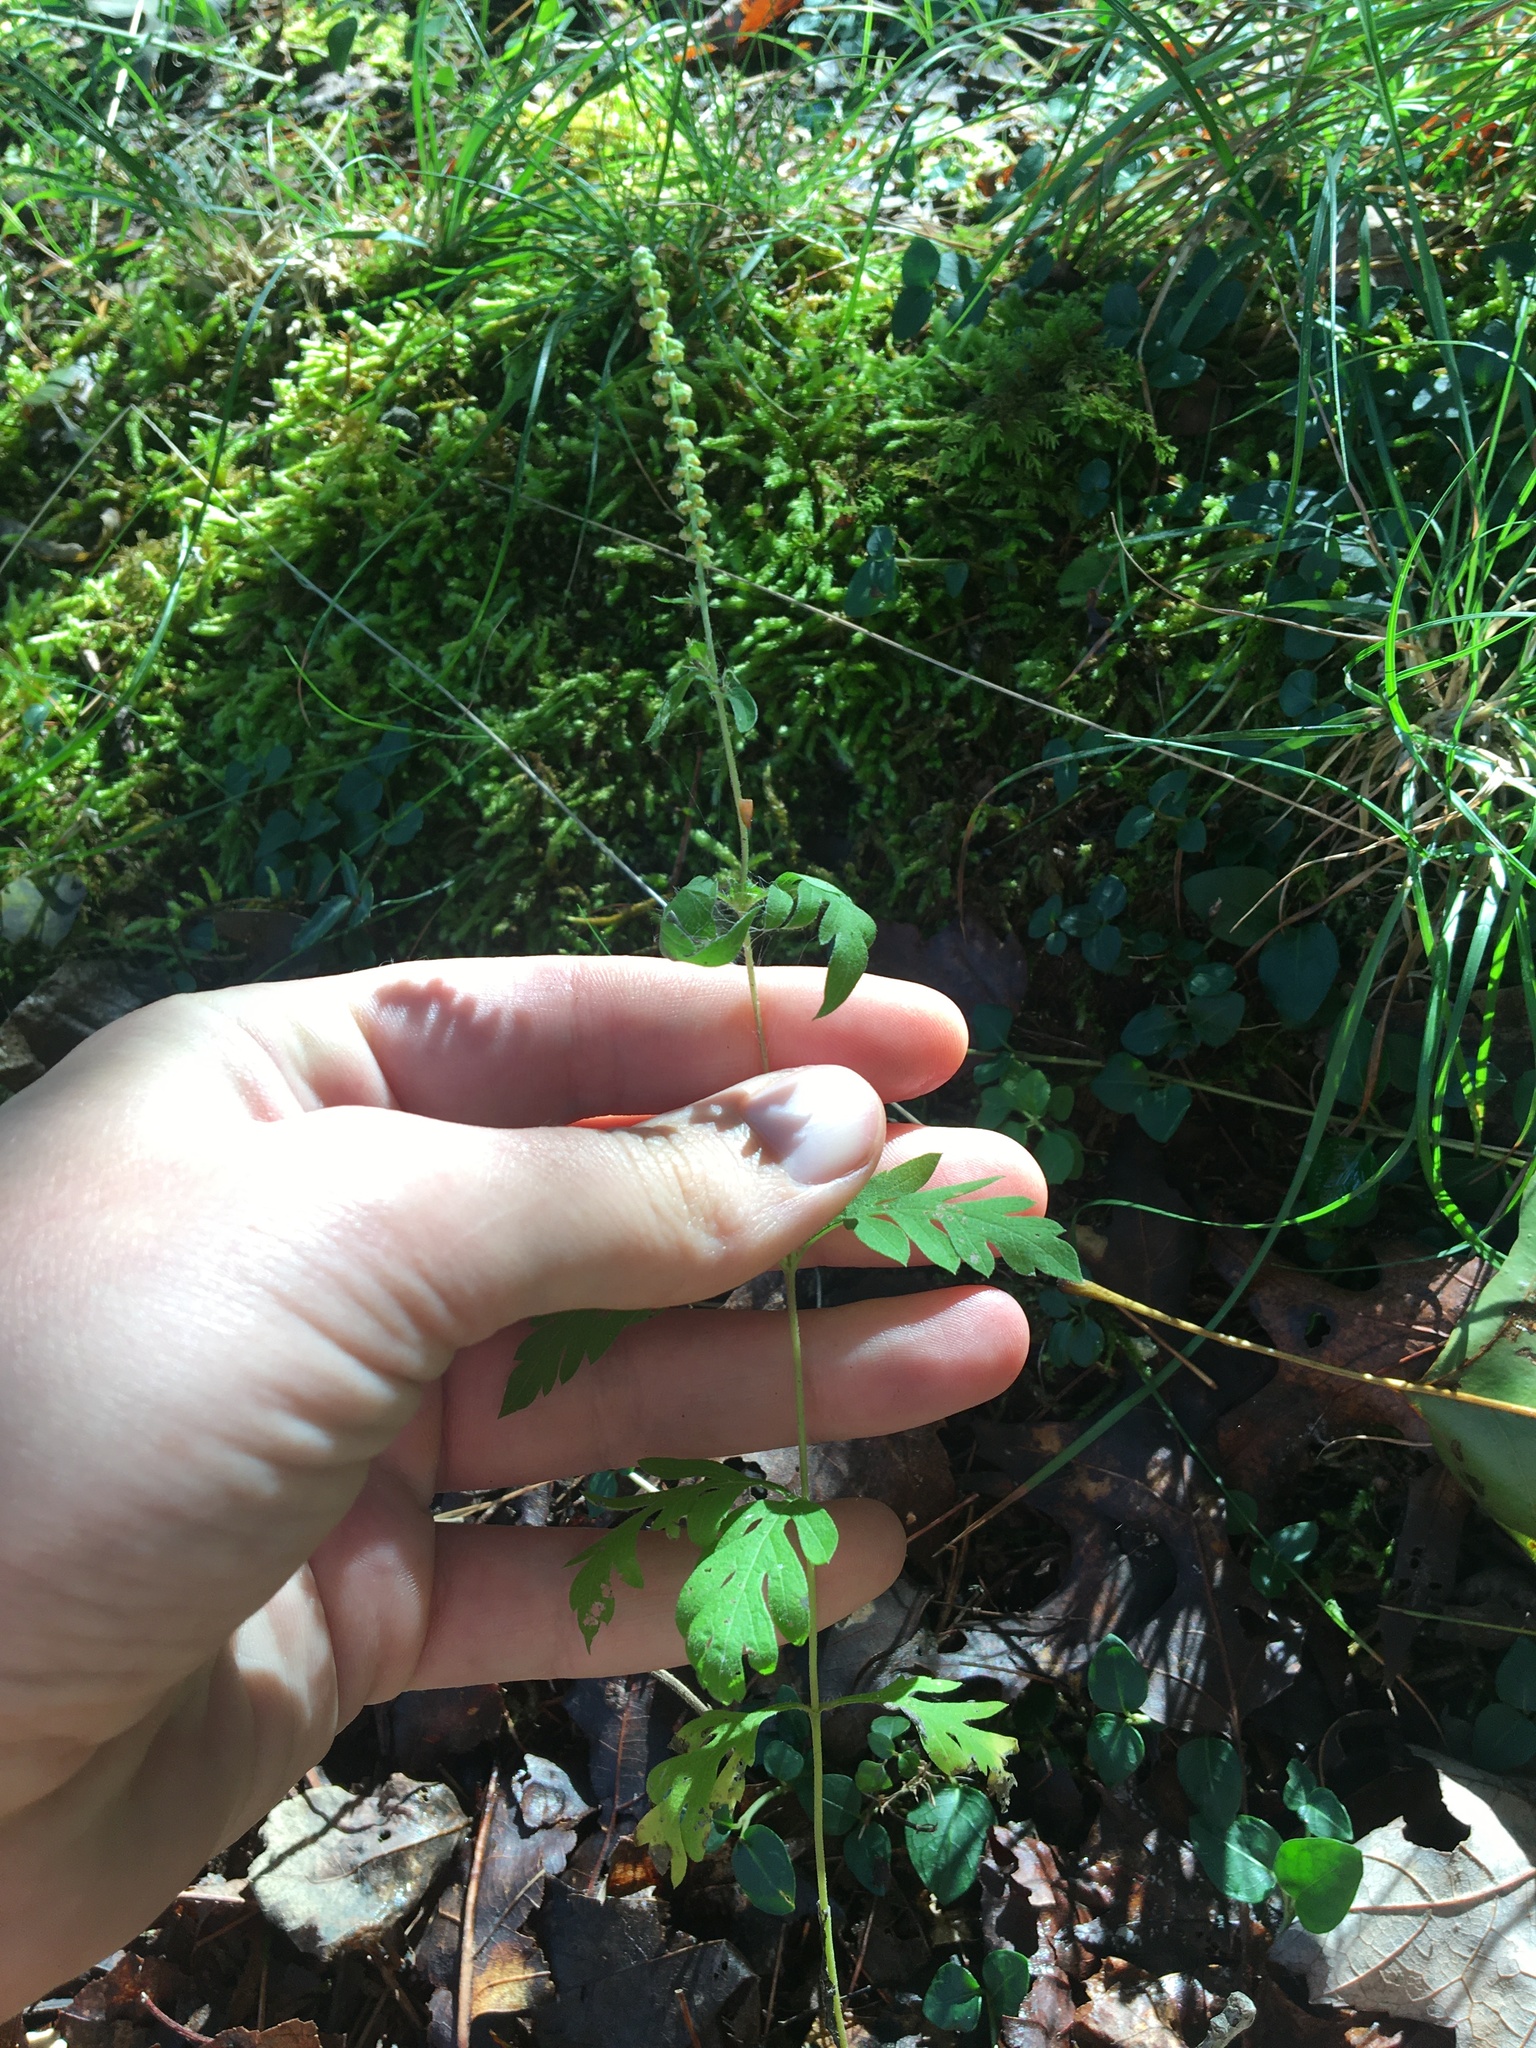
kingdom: Plantae
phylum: Tracheophyta
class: Magnoliopsida
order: Asterales
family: Asteraceae
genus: Ambrosia
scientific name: Ambrosia artemisiifolia
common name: Annual ragweed
